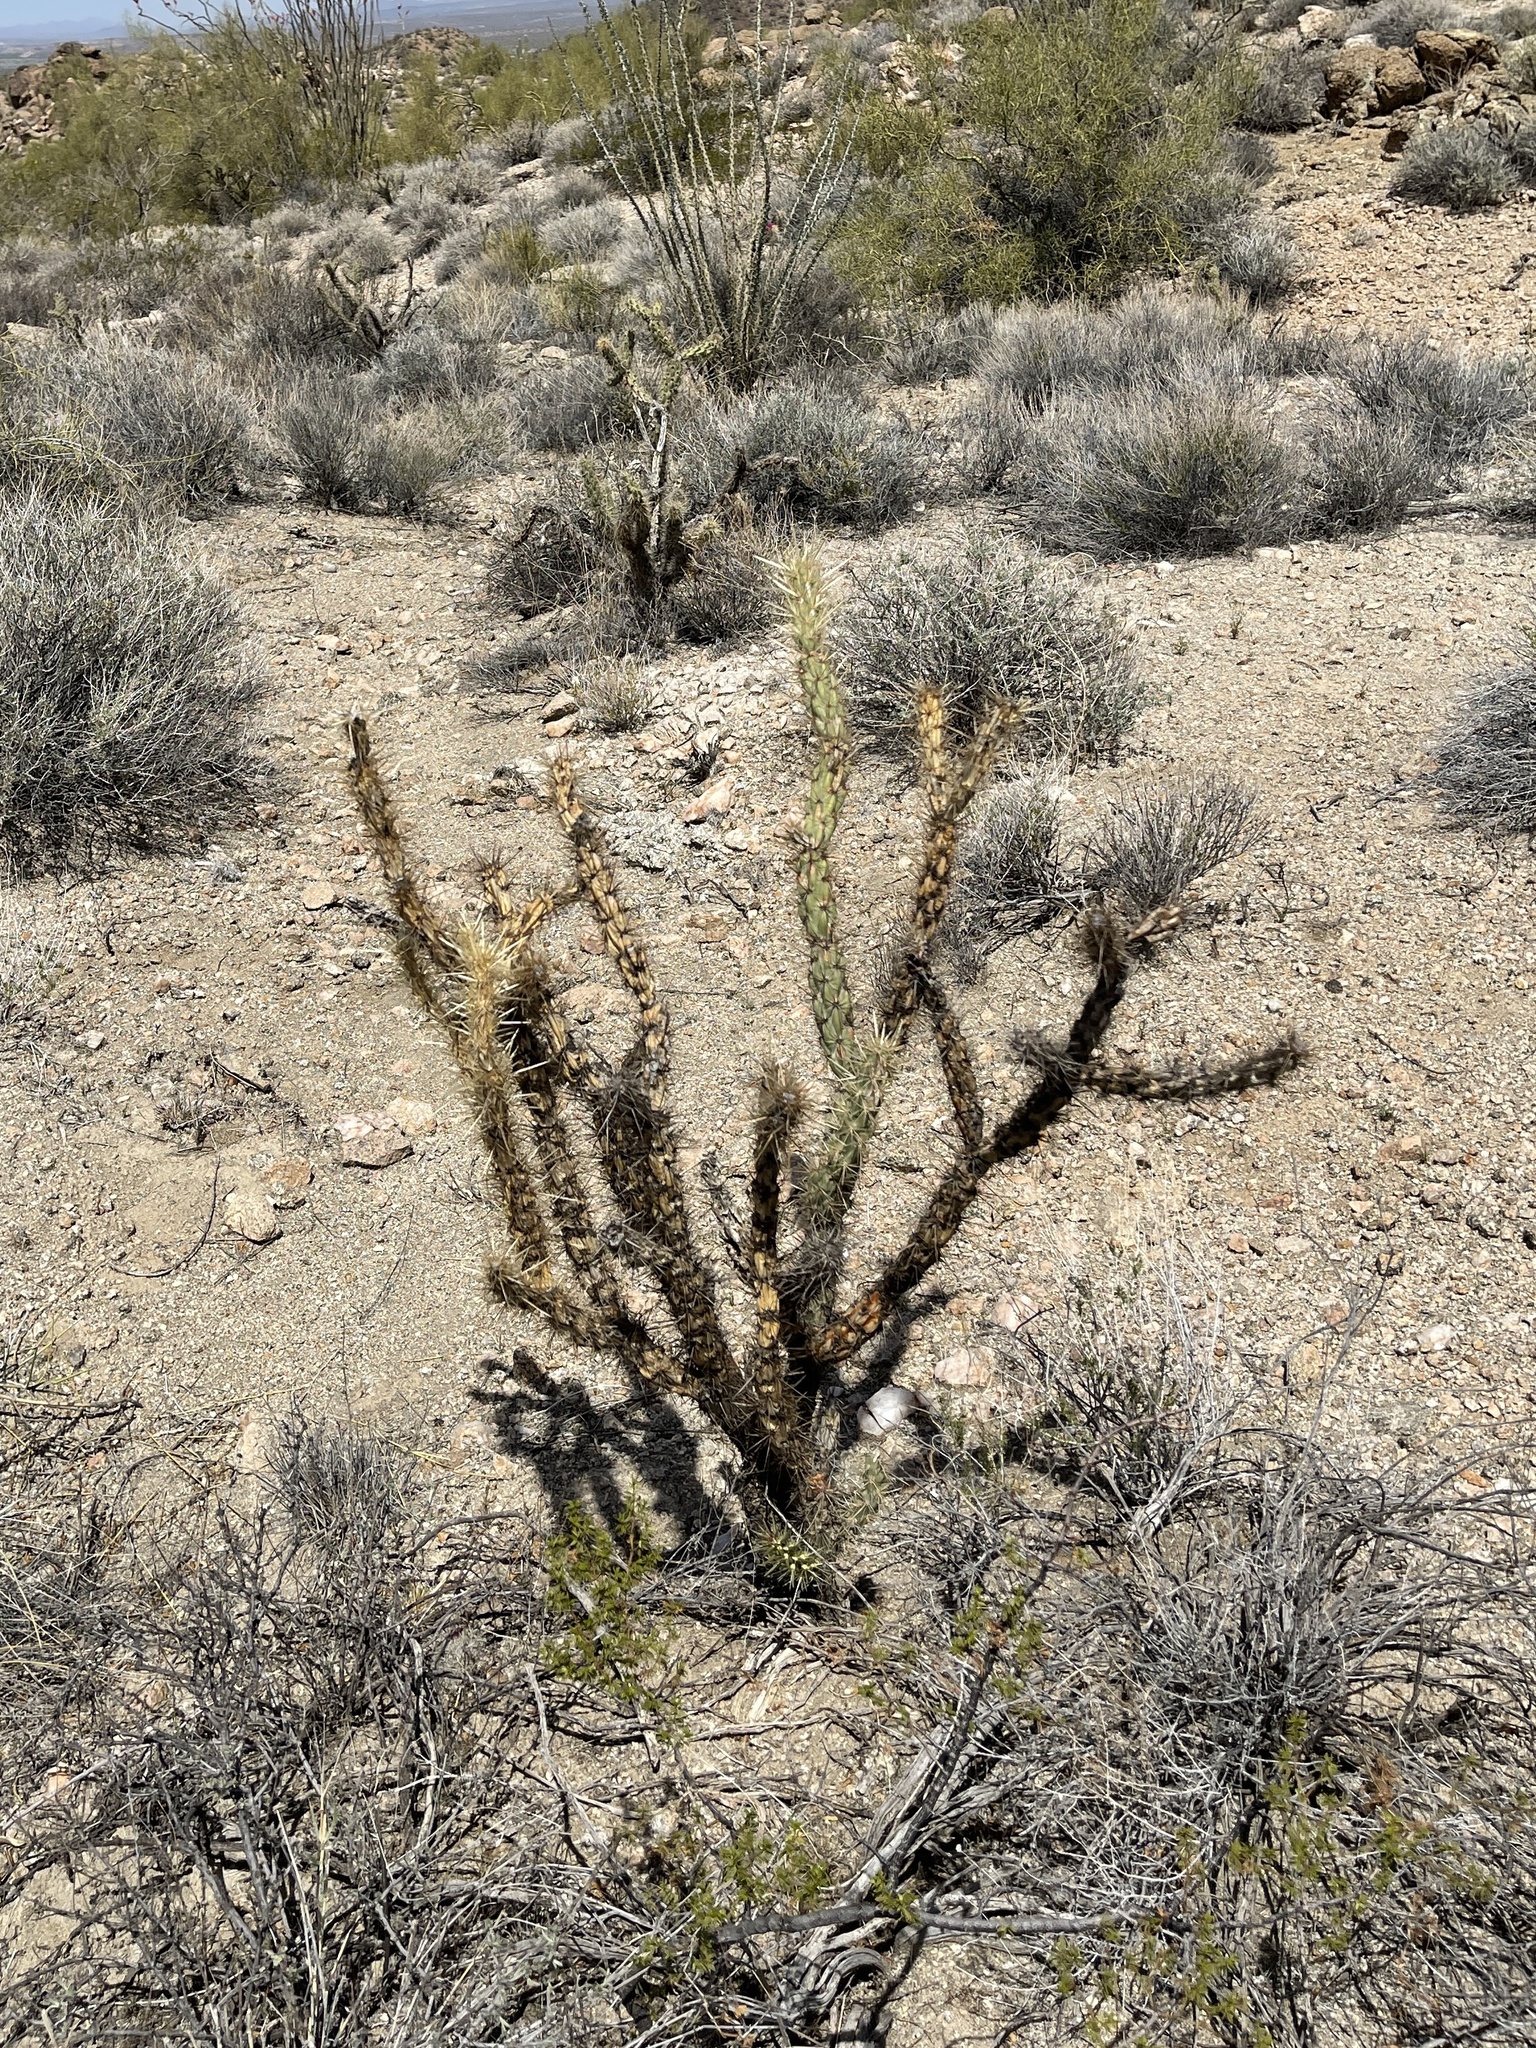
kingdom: Plantae
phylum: Tracheophyta
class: Magnoliopsida
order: Caryophyllales
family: Cactaceae
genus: Cylindropuntia
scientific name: Cylindropuntia acanthocarpa
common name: Buckhorn cholla
